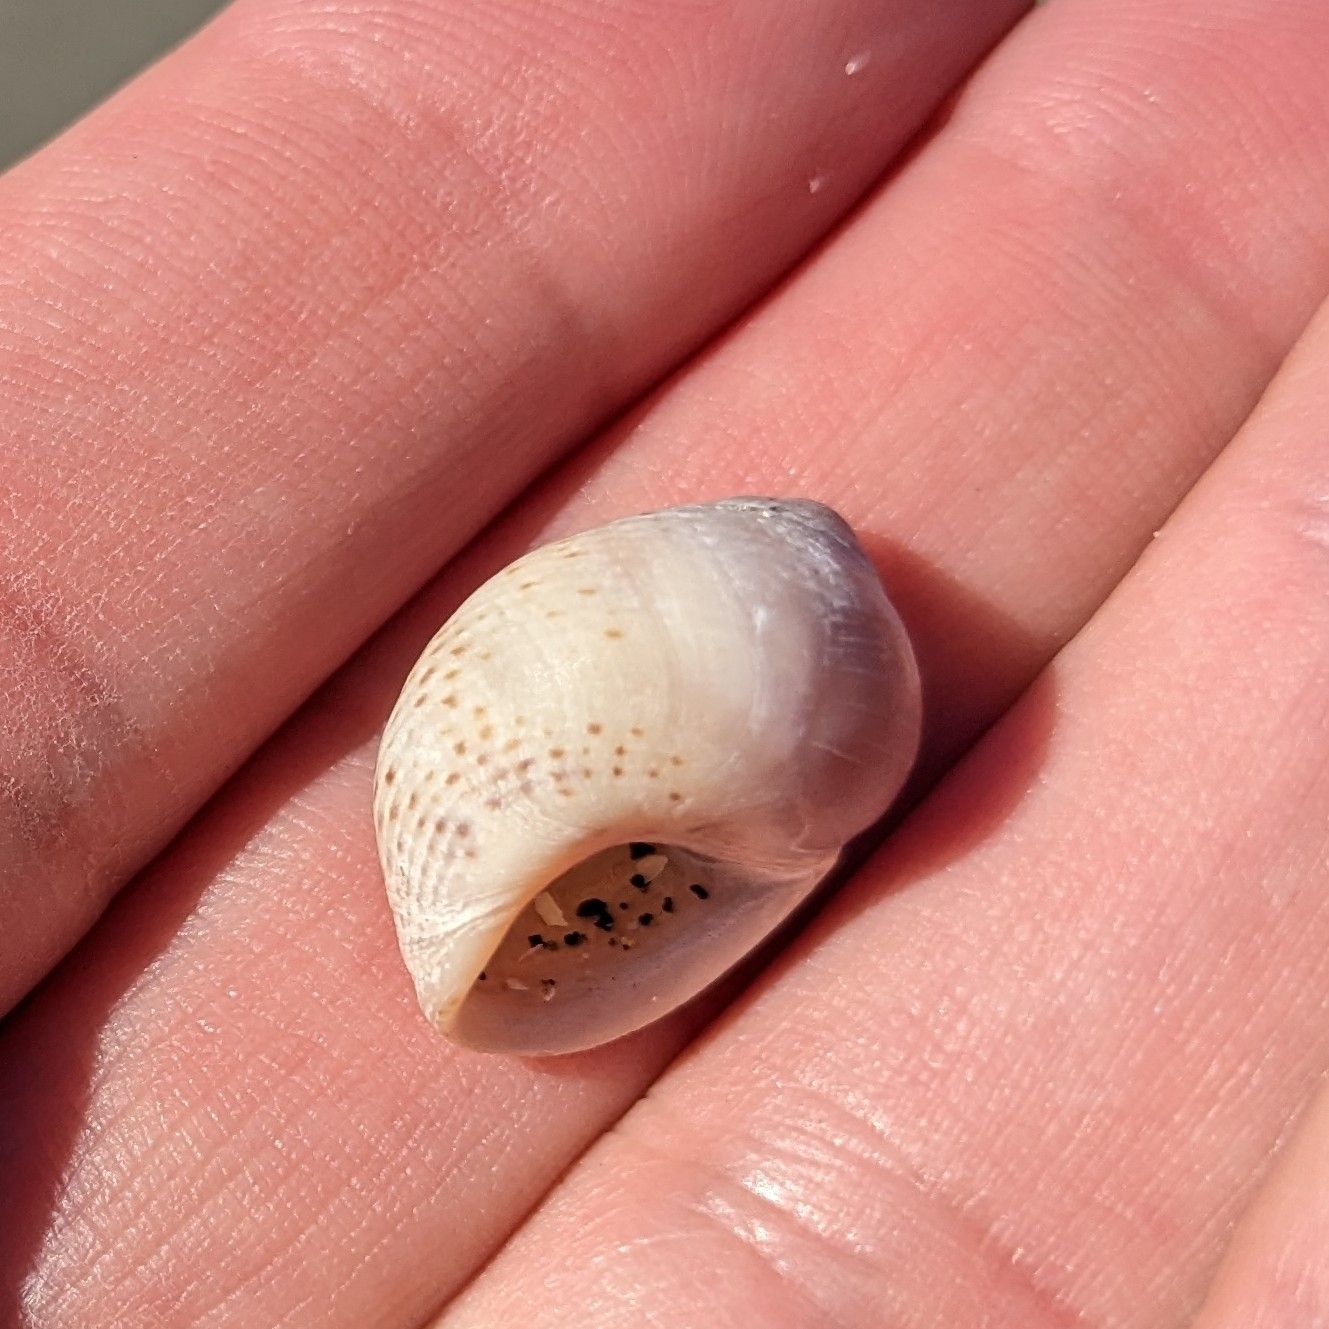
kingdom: Animalia
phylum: Mollusca
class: Gastropoda
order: Littorinimorpha
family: Littorinidae
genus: Littoraria
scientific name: Littoraria irrorata
